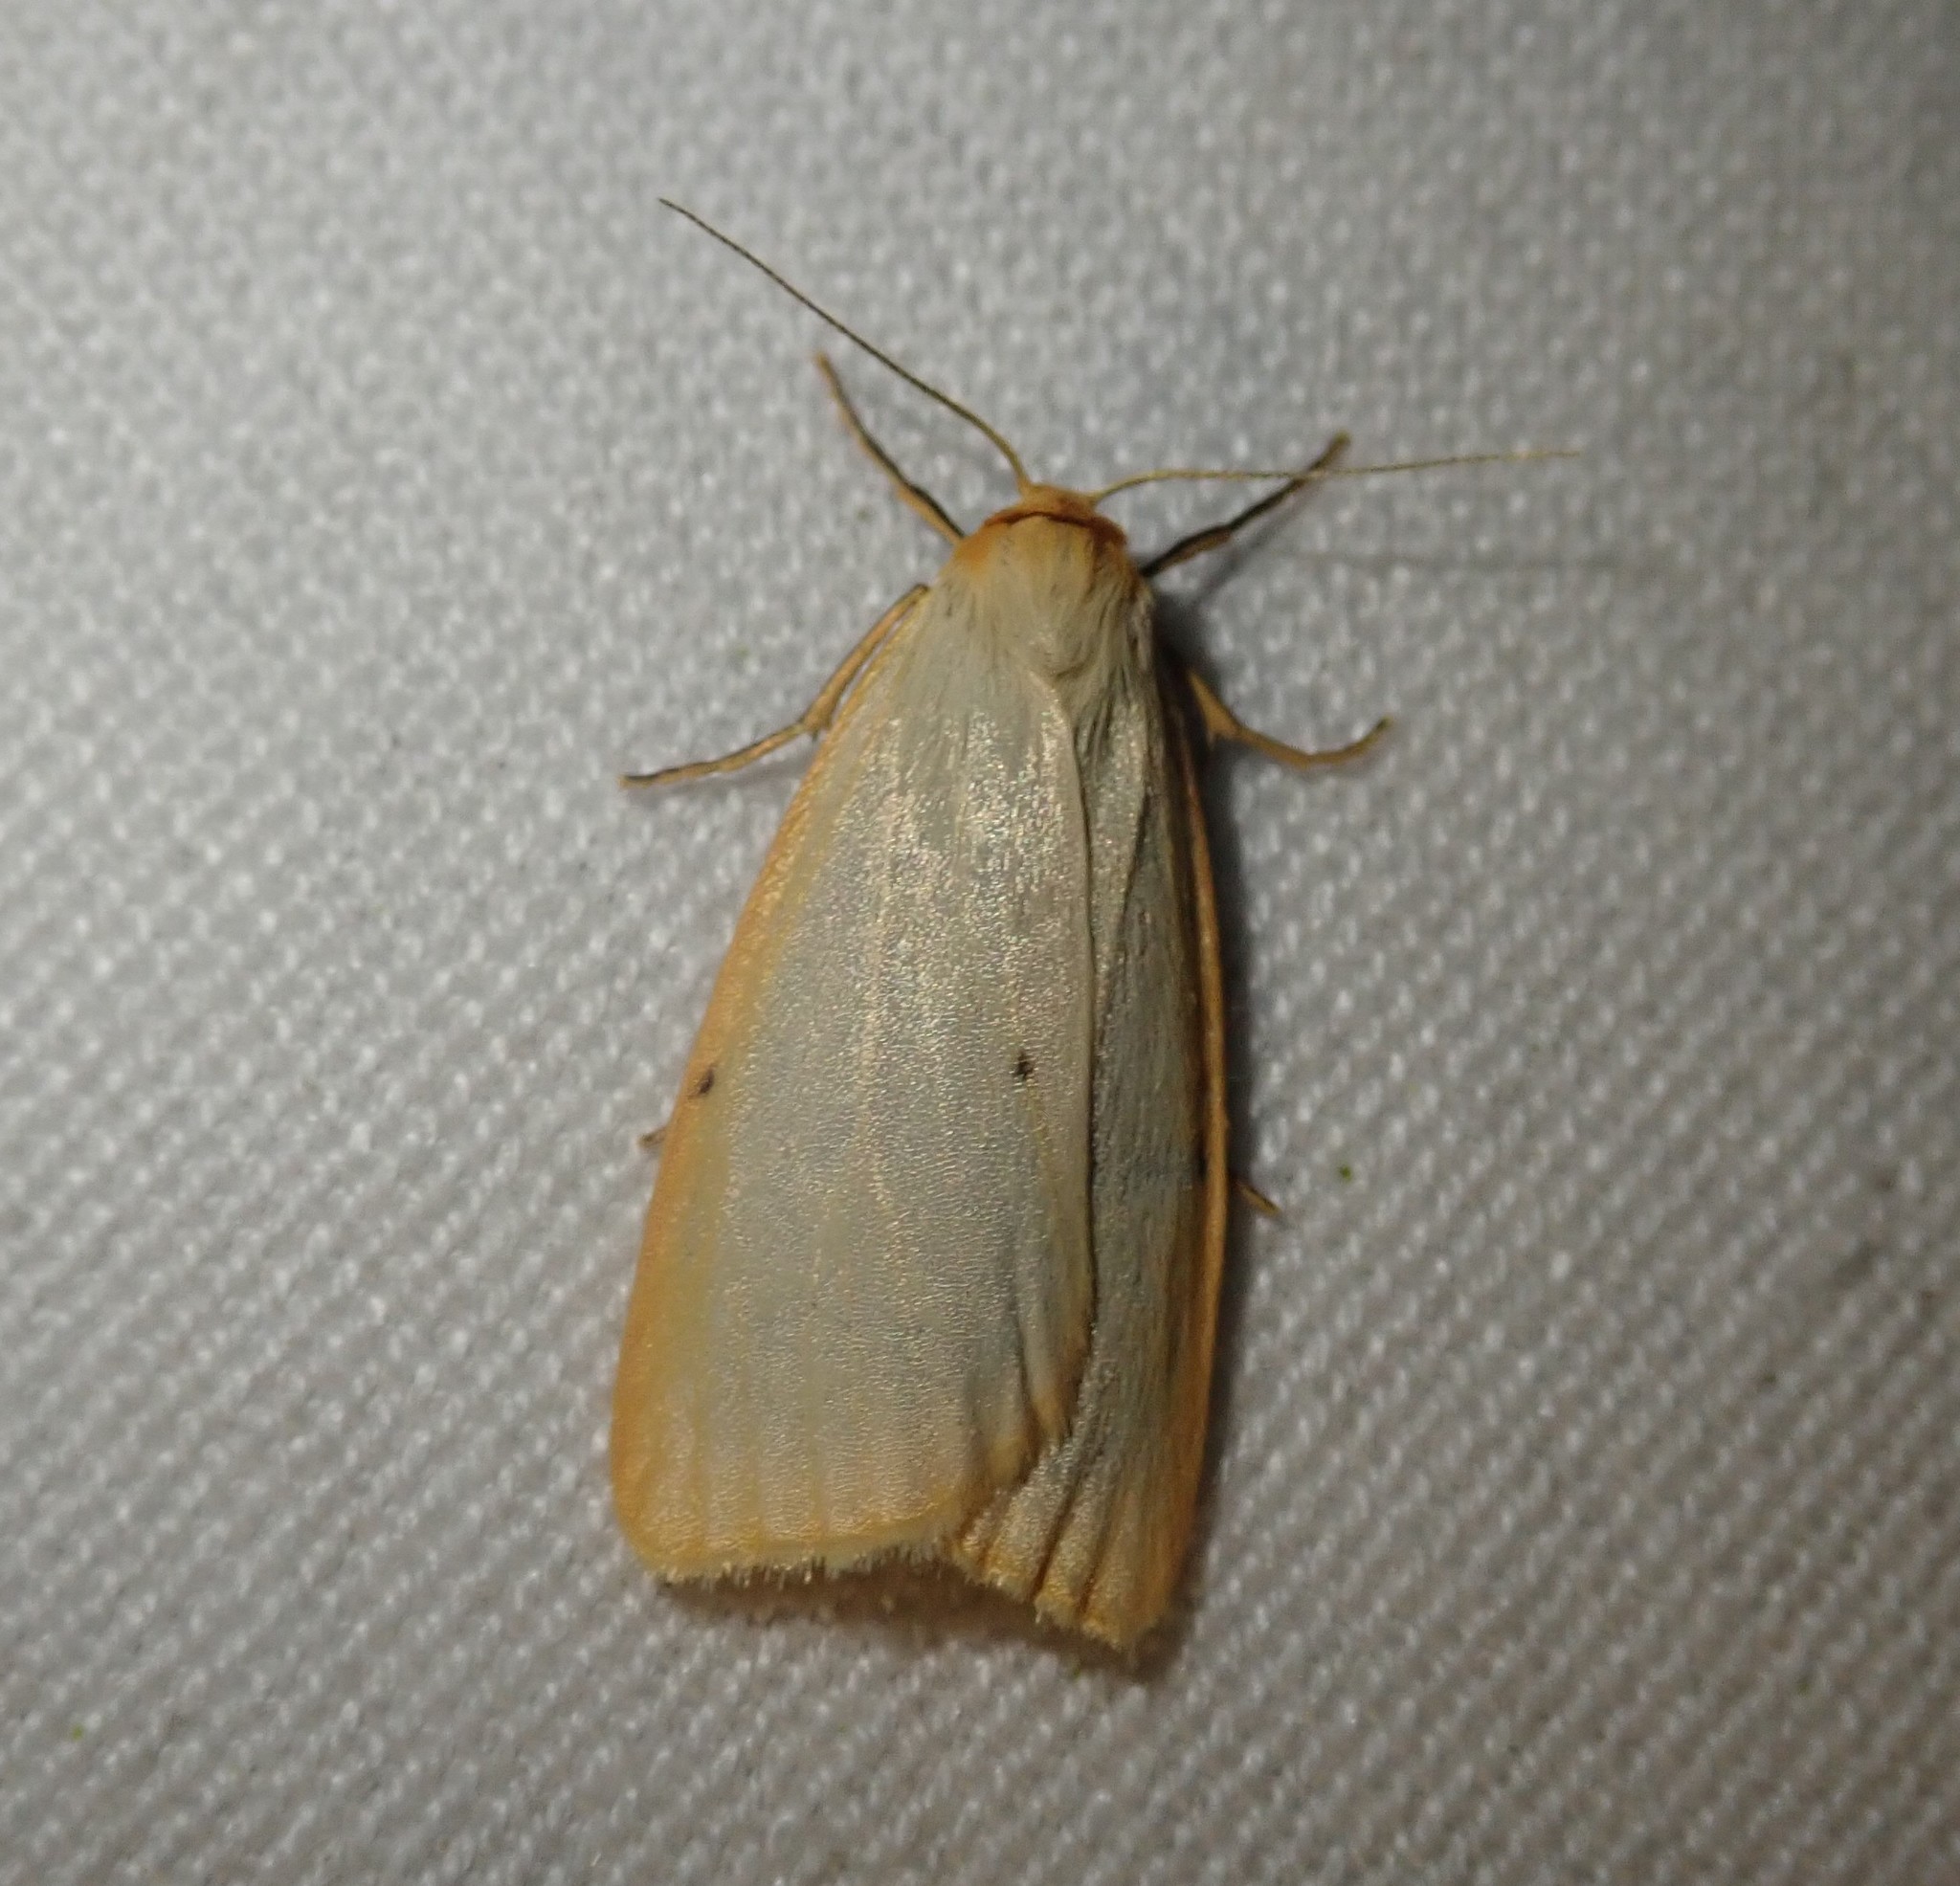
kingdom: Animalia
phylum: Arthropoda
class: Insecta
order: Lepidoptera
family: Erebidae
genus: Cybosia
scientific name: Cybosia mesomella
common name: Four-dotted footman
